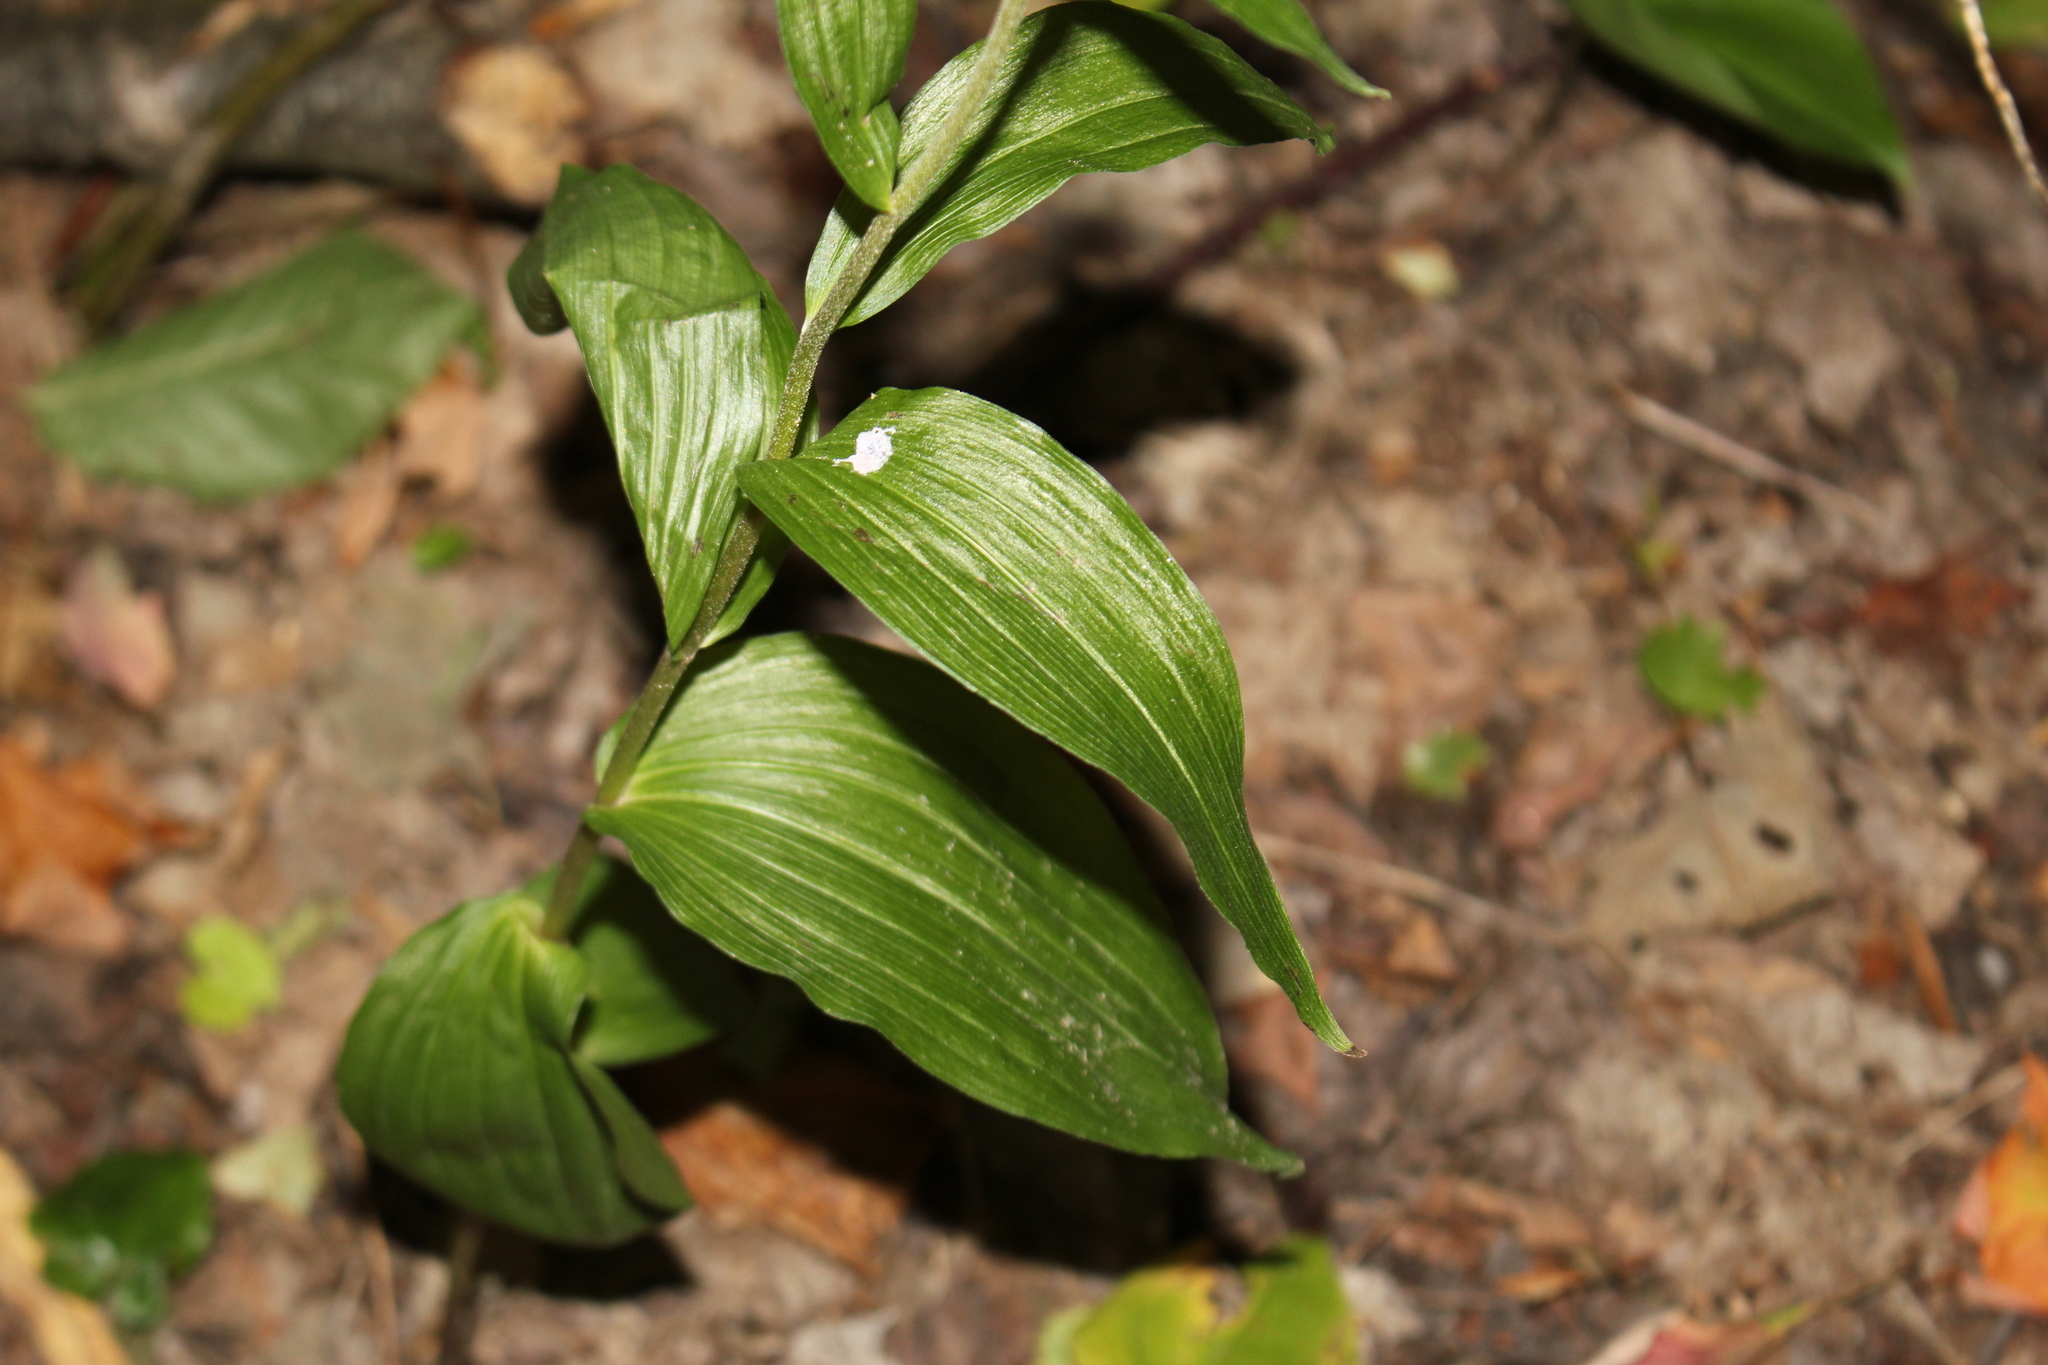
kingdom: Plantae
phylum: Tracheophyta
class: Liliopsida
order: Asparagales
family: Orchidaceae
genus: Epipactis
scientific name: Epipactis helleborine
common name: Broad-leaved helleborine
